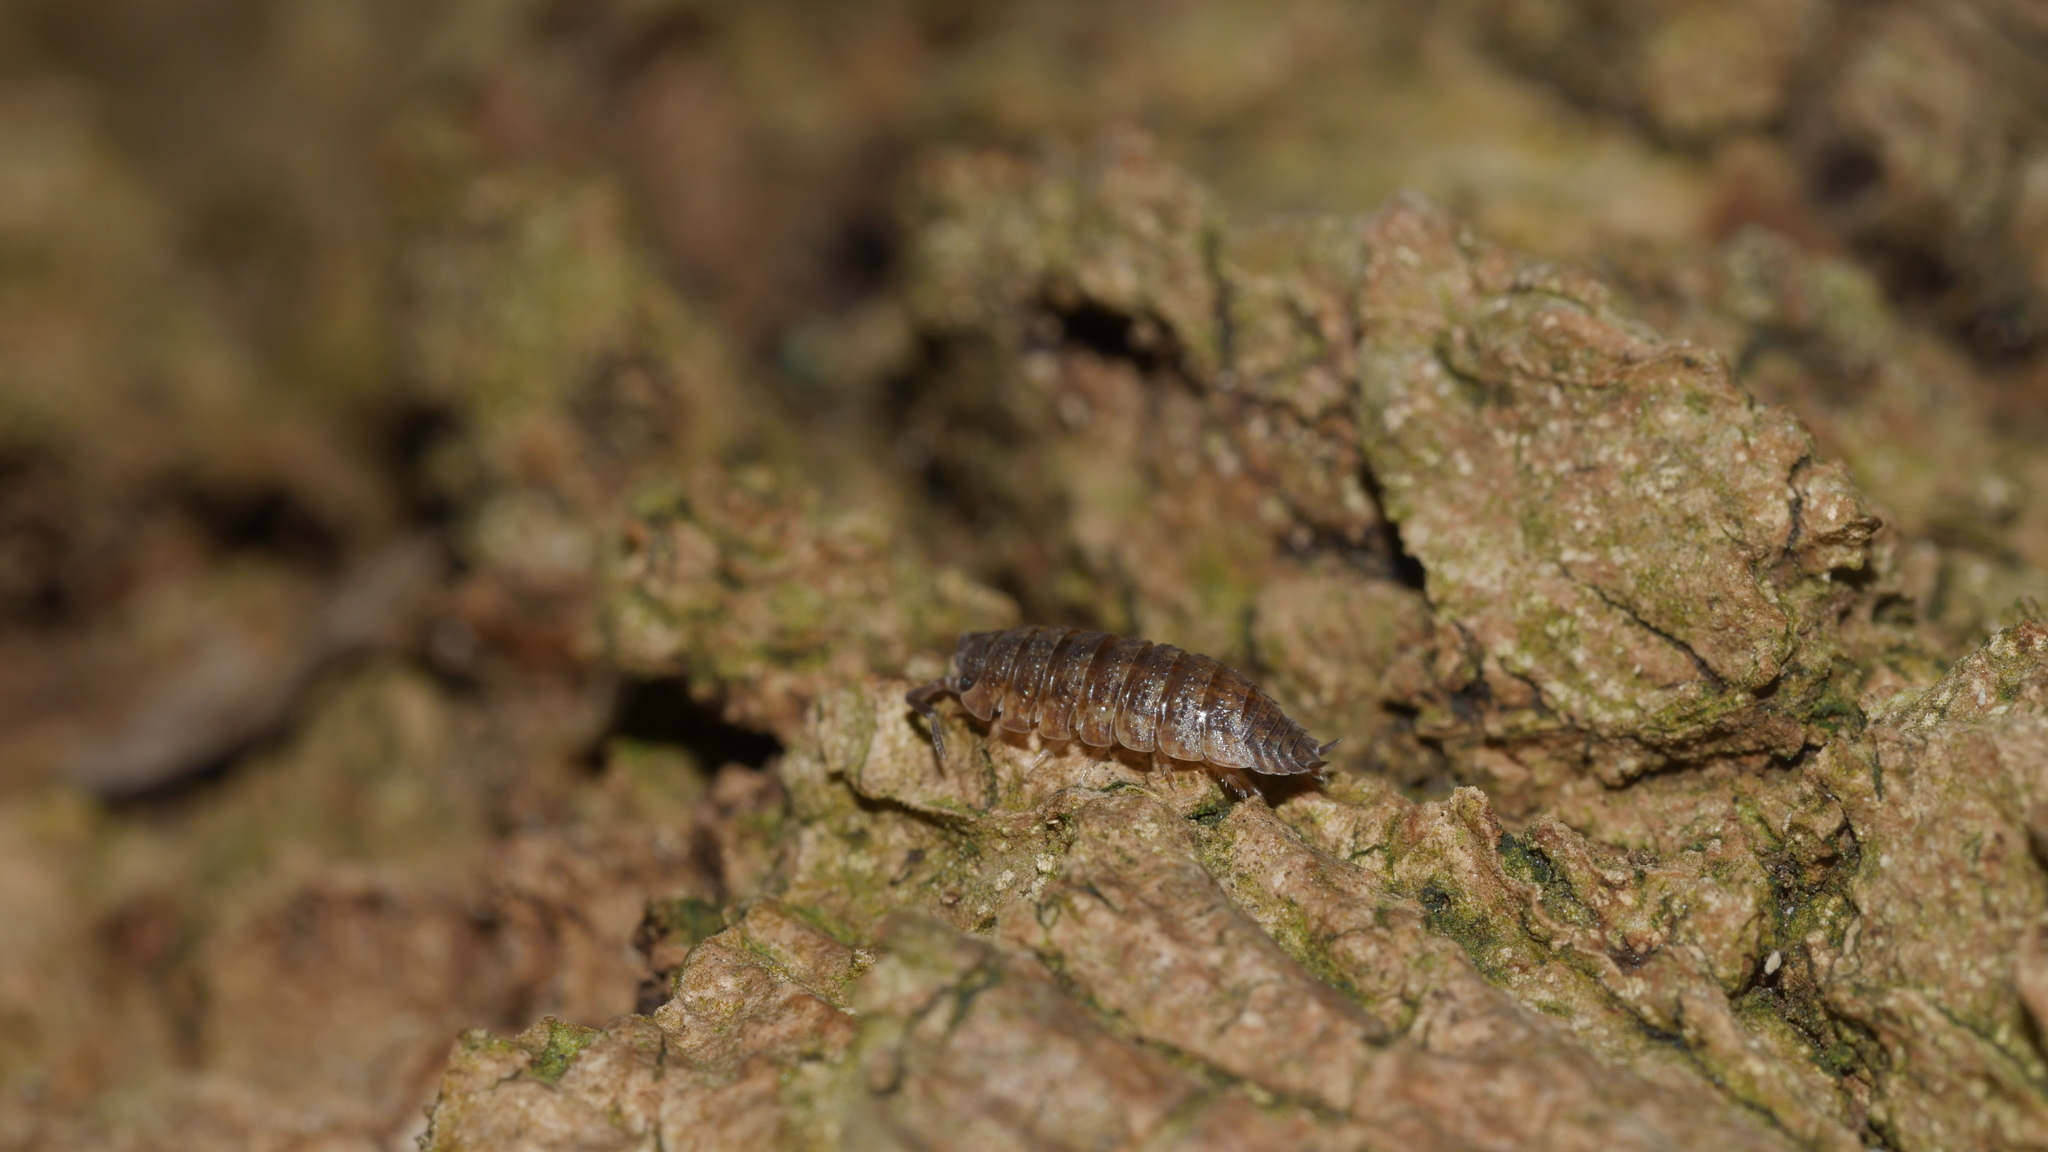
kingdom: Animalia
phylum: Arthropoda
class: Malacostraca
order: Isopoda
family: Porcellionidae
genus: Porcellio
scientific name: Porcellio scaber
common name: Common rough woodlouse
